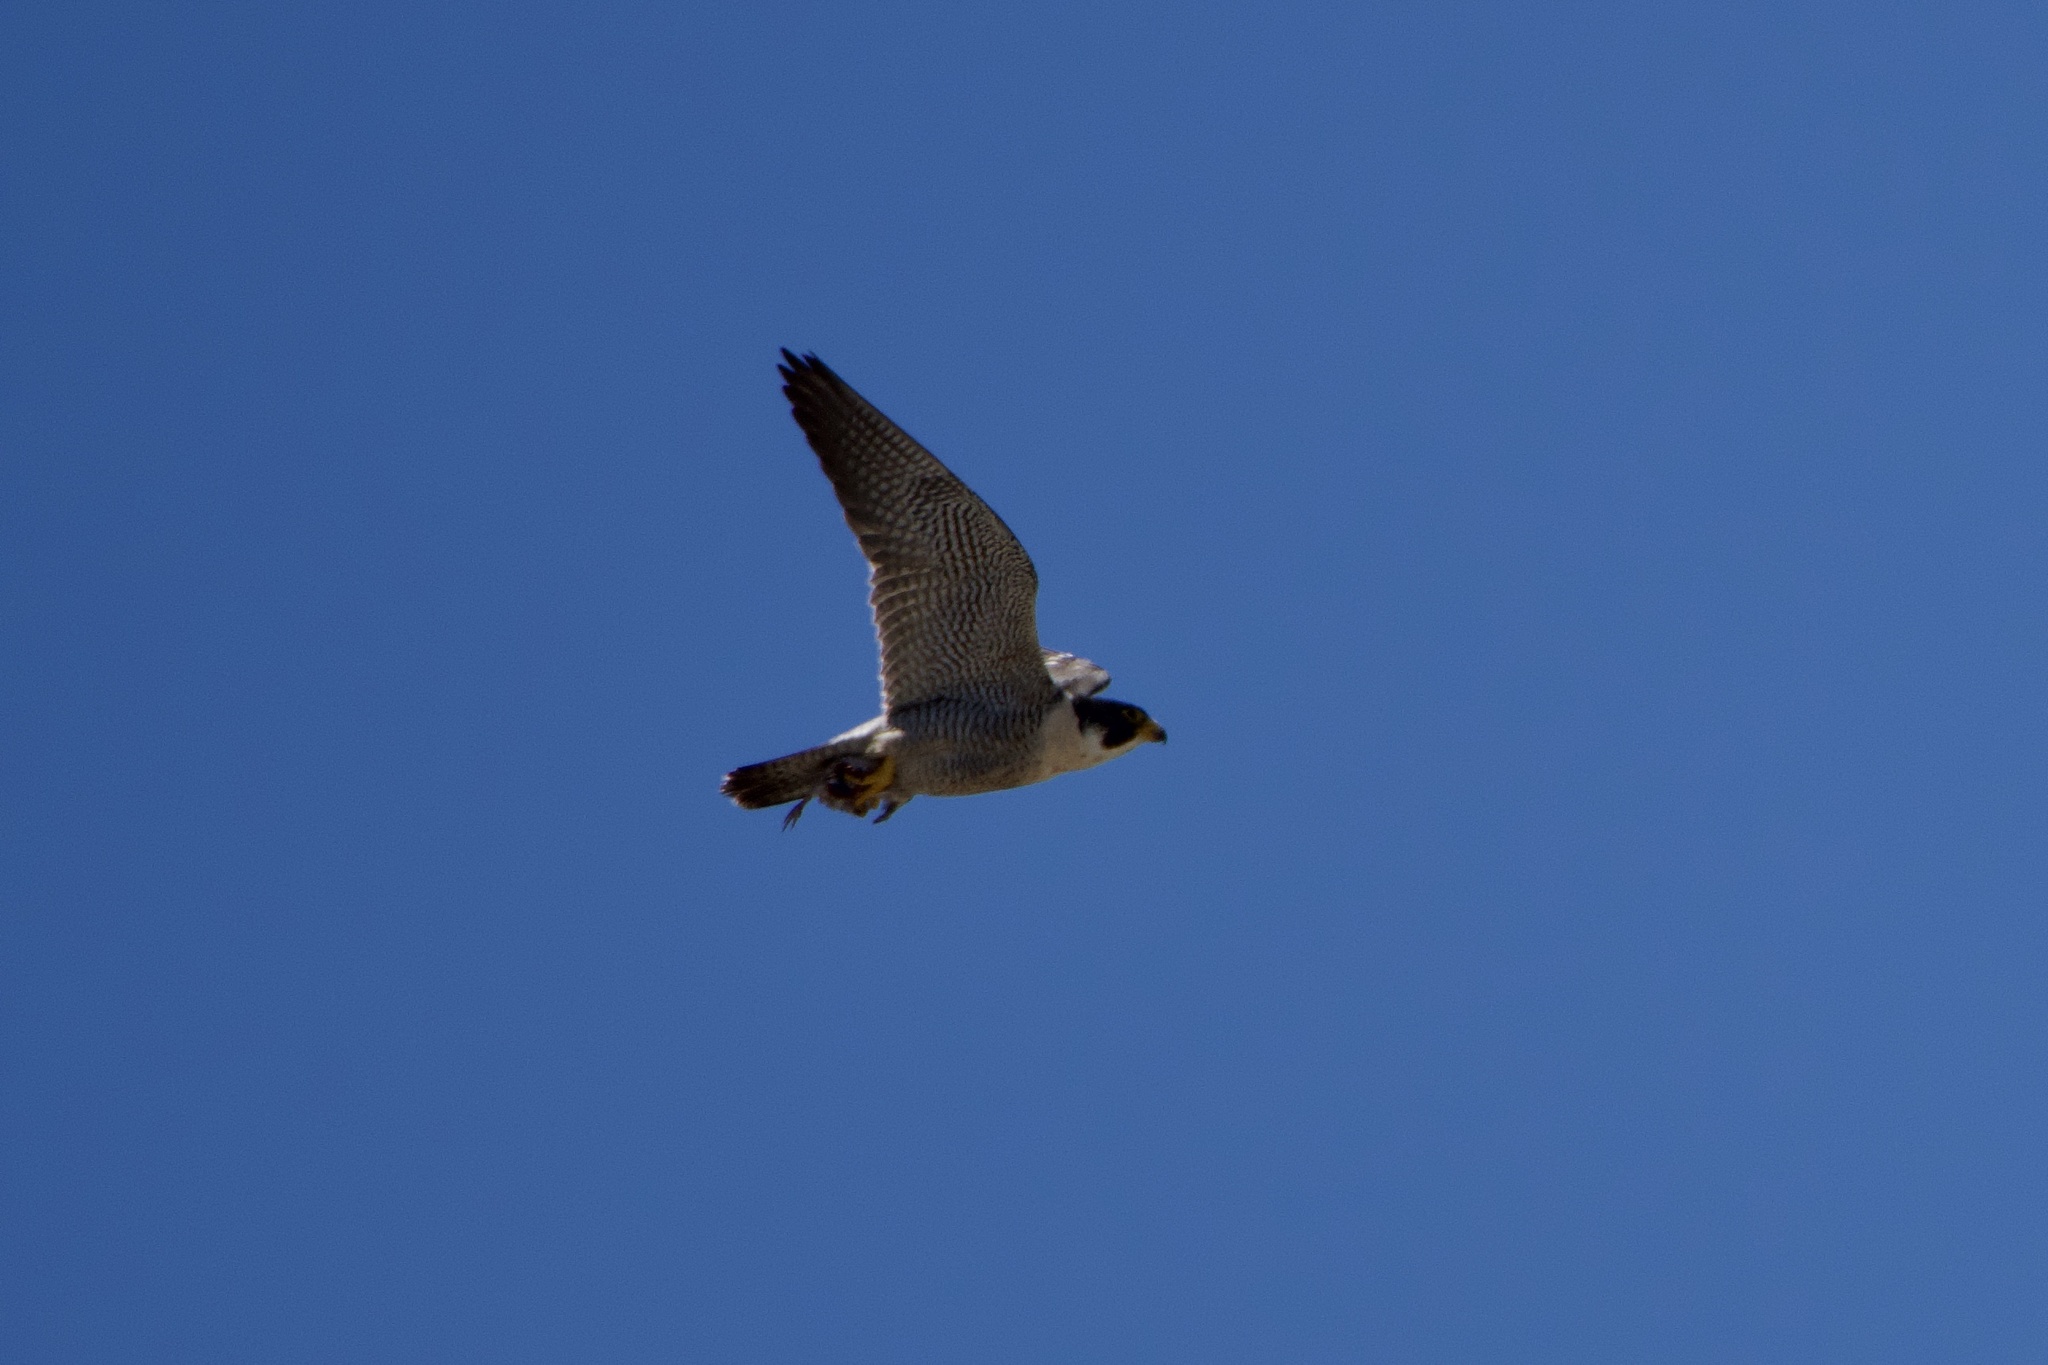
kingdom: Animalia
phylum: Chordata
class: Aves
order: Falconiformes
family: Falconidae
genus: Falco
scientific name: Falco peregrinus
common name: Peregrine falcon
